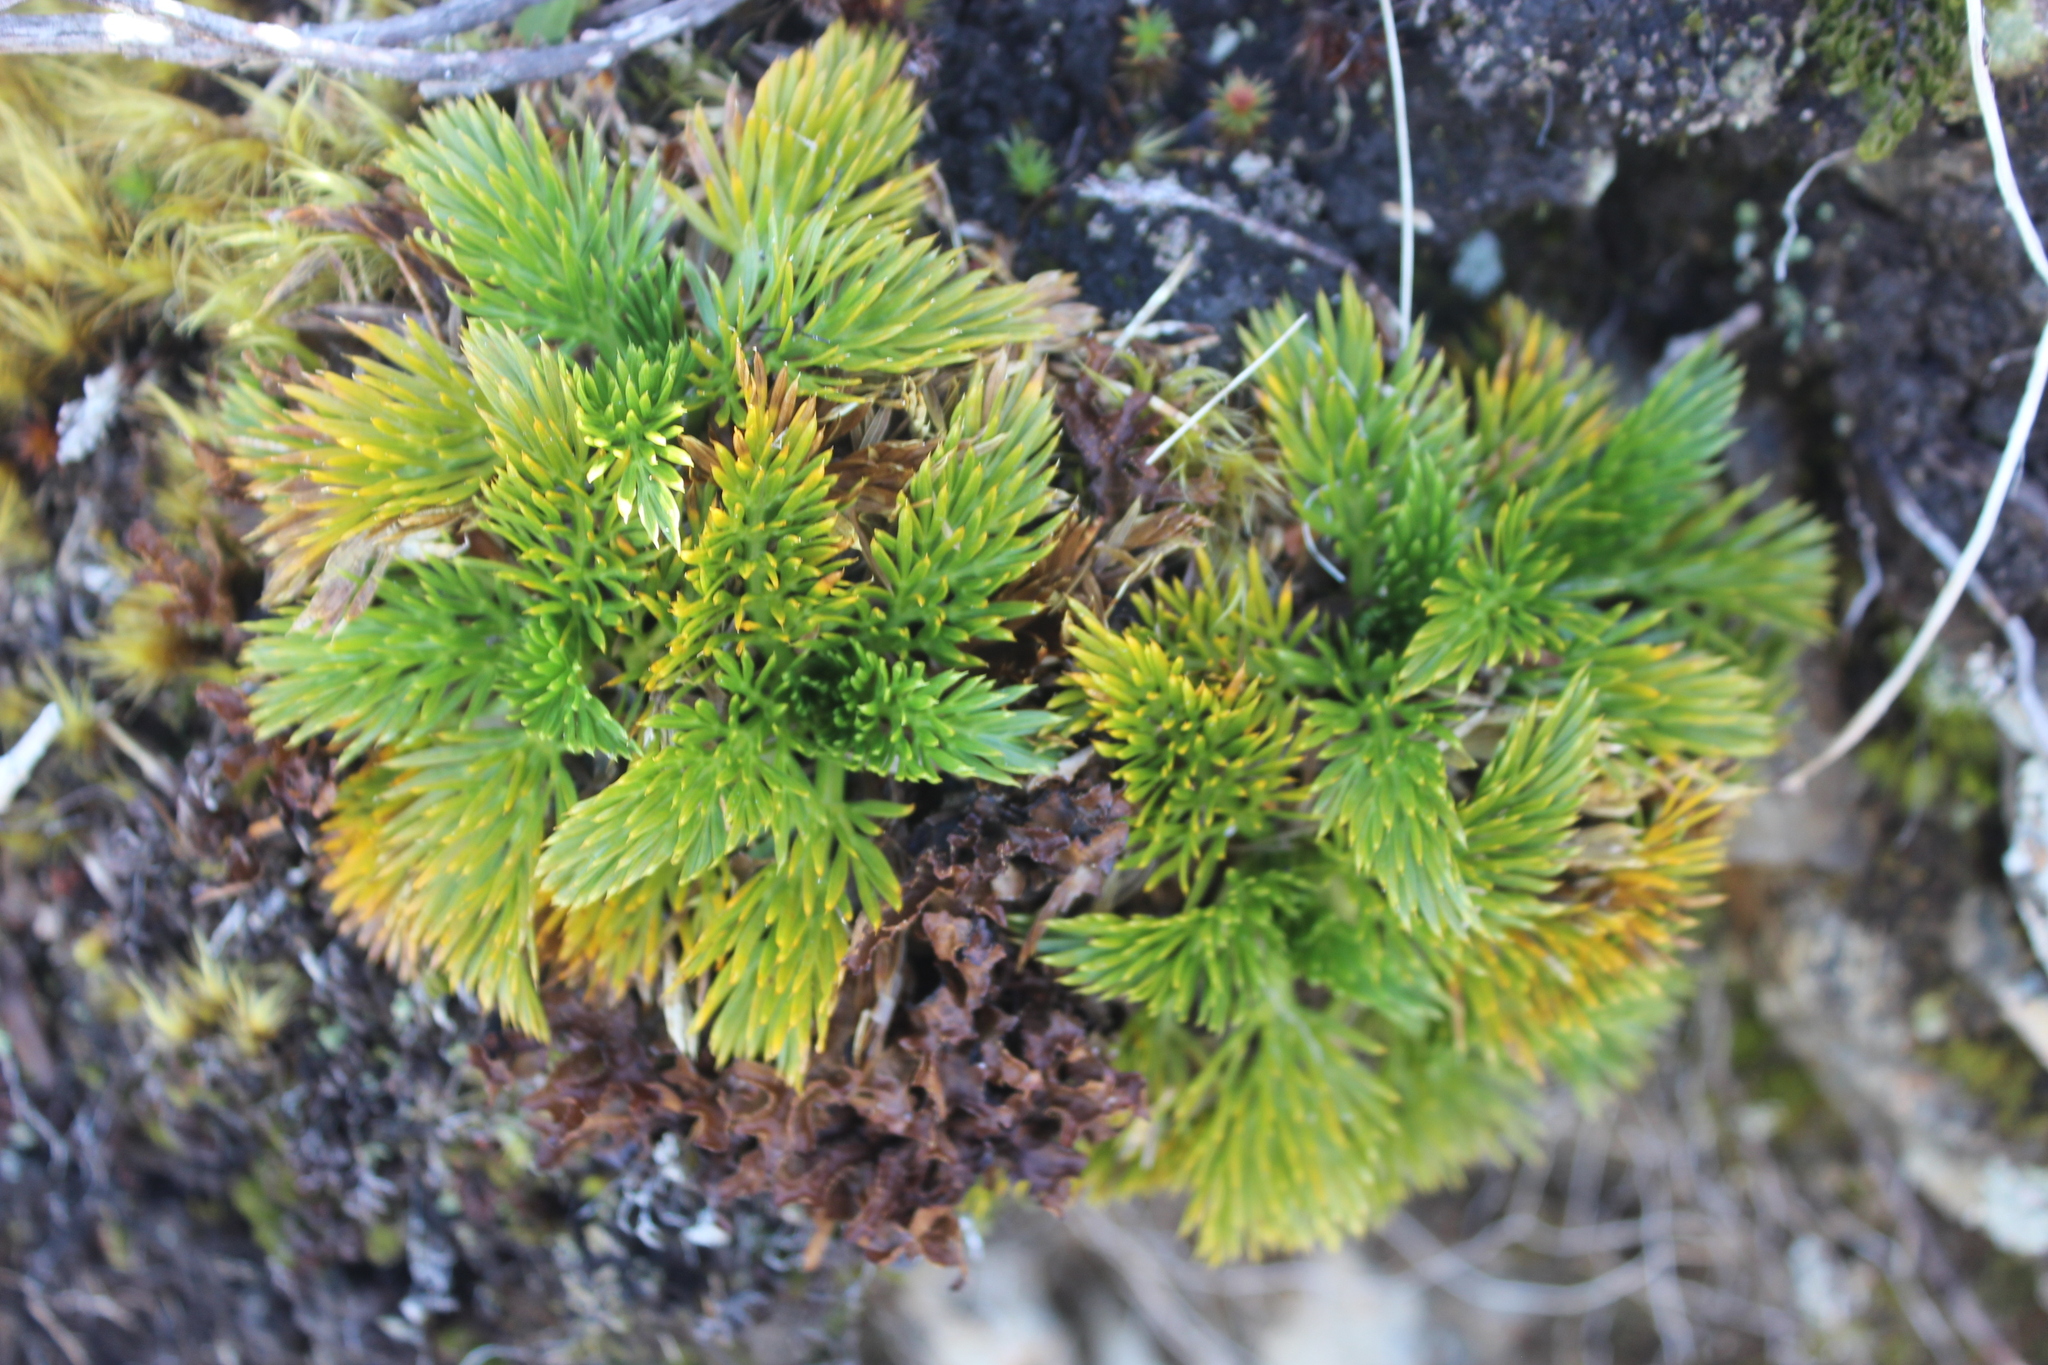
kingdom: Plantae
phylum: Tracheophyta
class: Magnoliopsida
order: Apiales
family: Apiaceae
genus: Aciphylla
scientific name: Aciphylla dissecta
